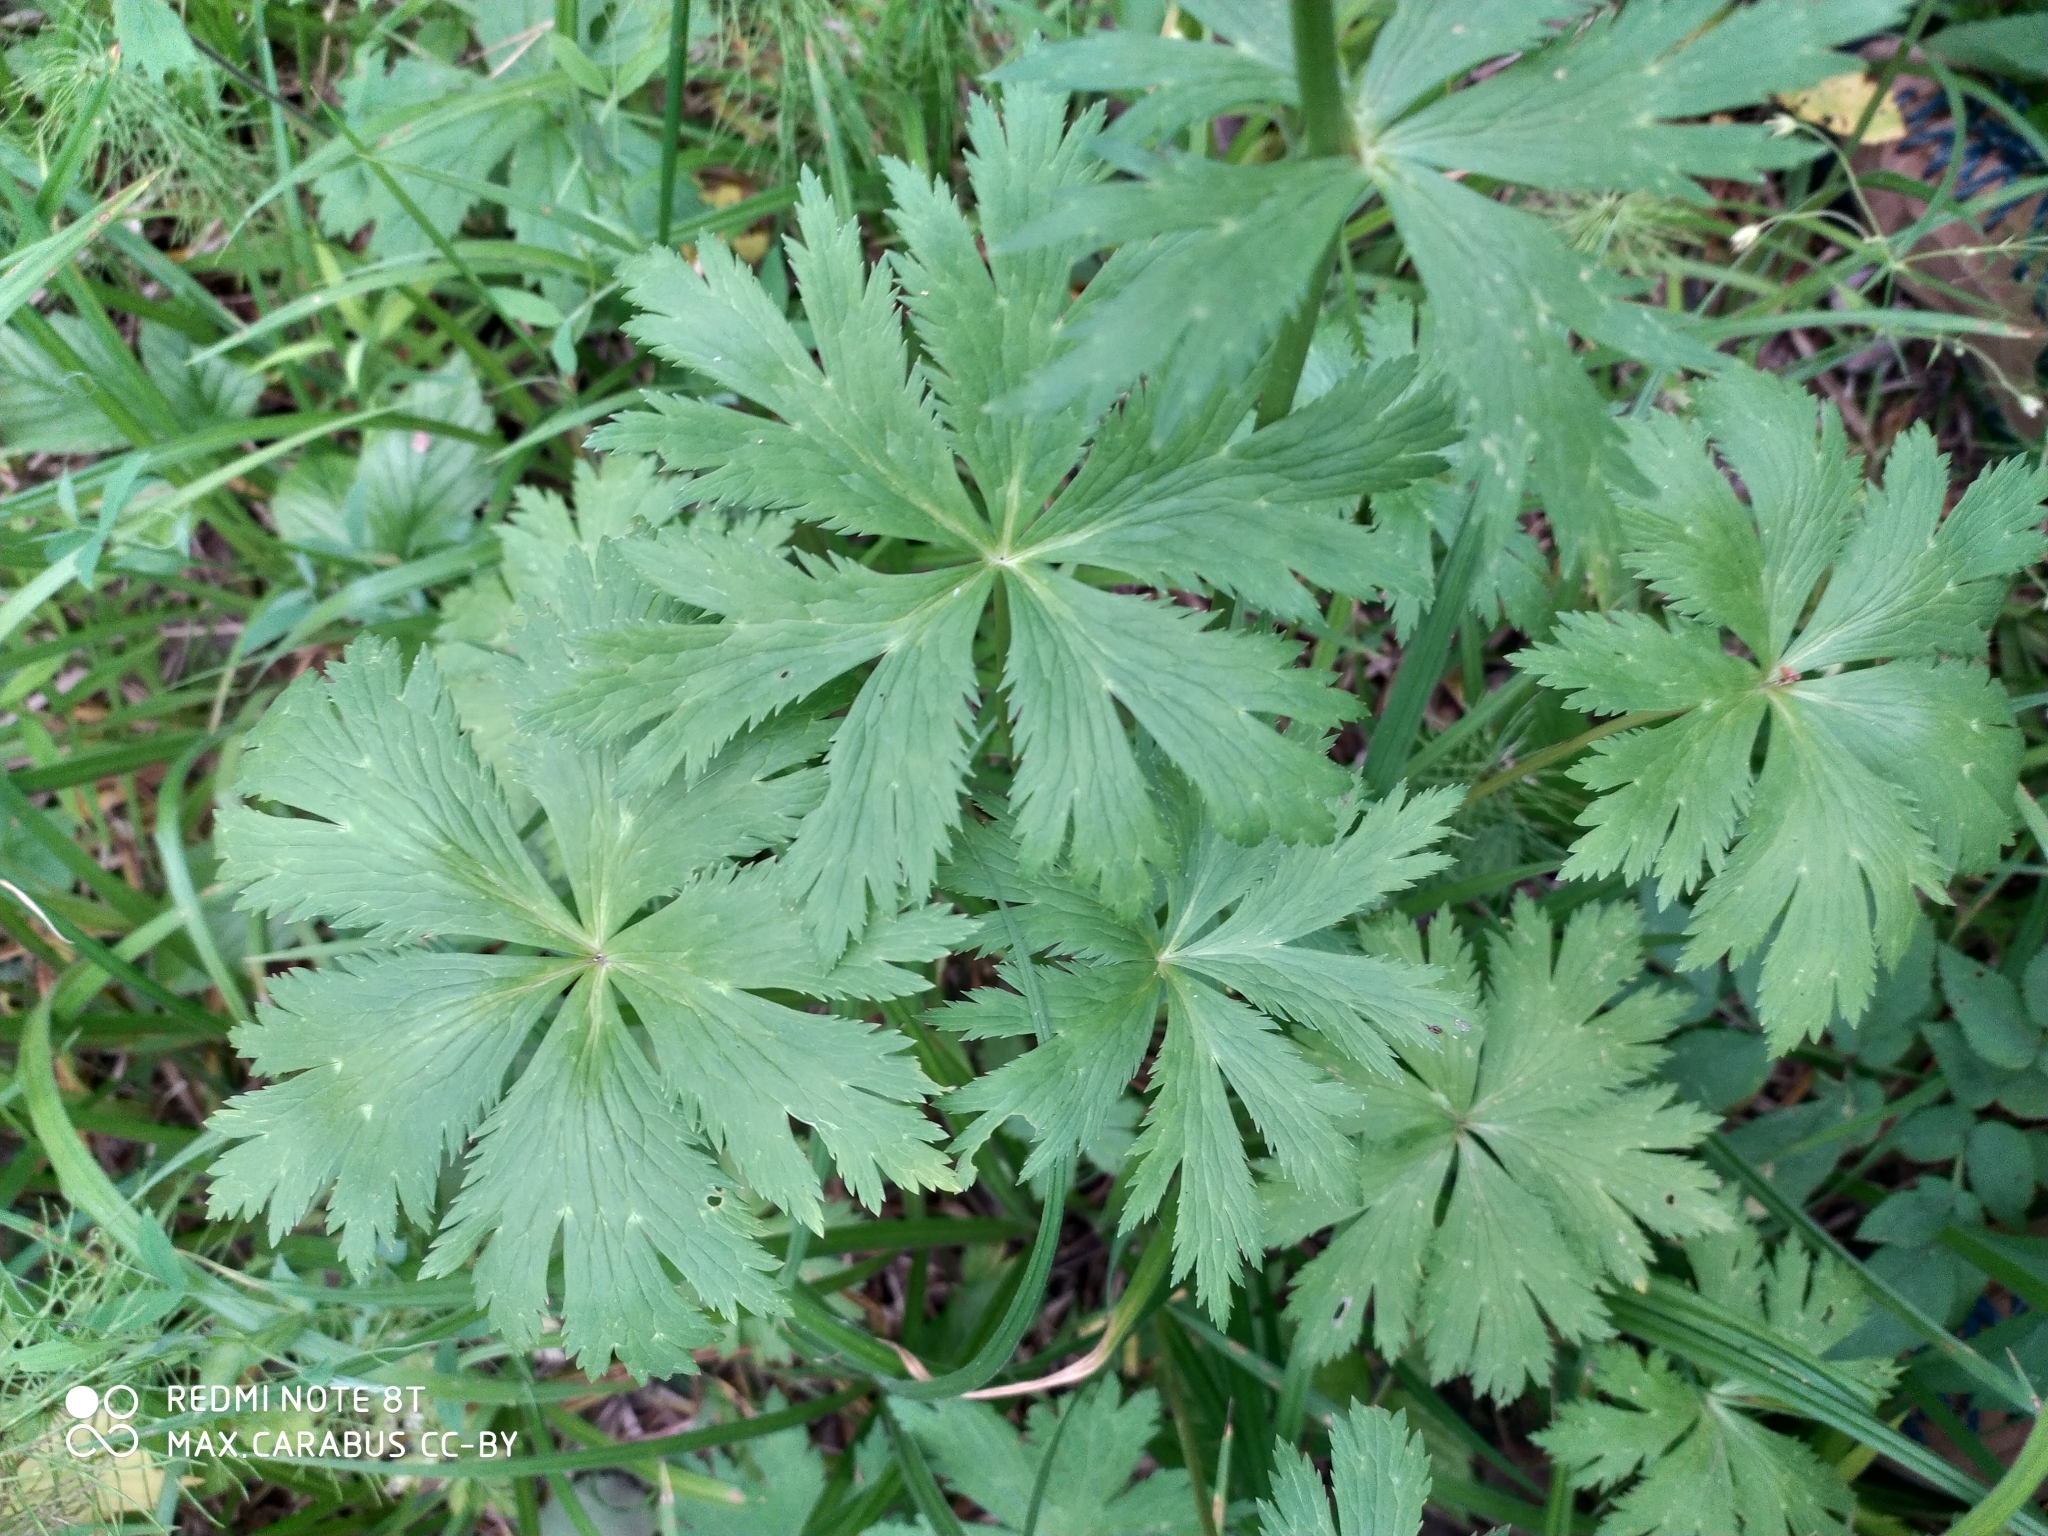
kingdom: Plantae
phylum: Tracheophyta
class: Magnoliopsida
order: Ranunculales
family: Ranunculaceae
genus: Trollius
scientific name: Trollius europaeus
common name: European globeflower
